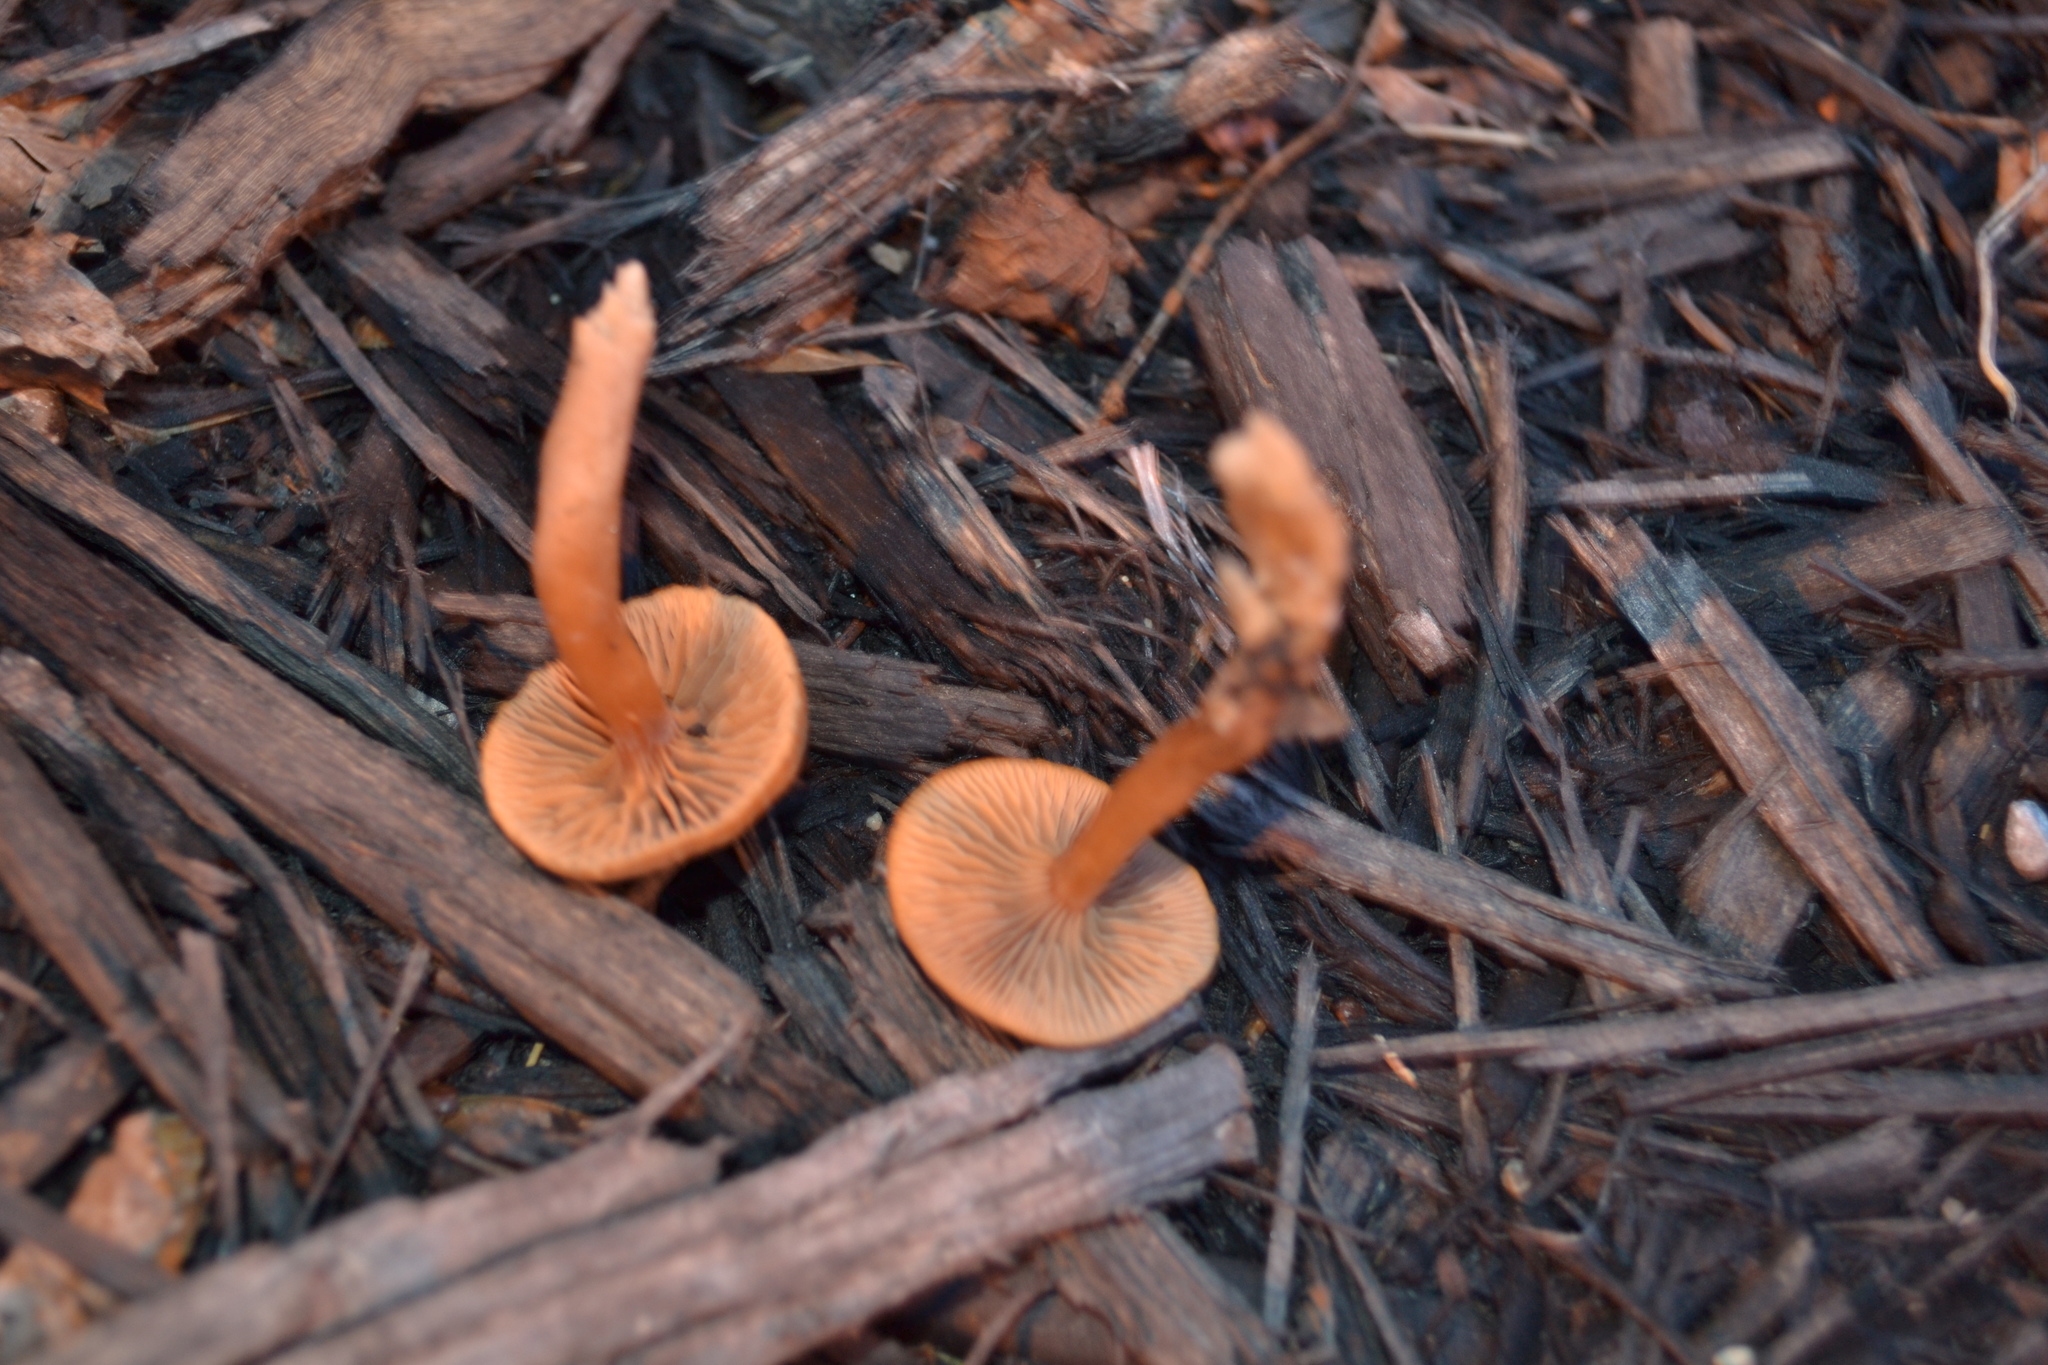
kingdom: Fungi
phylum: Basidiomycota
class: Agaricomycetes
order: Agaricales
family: Tubariaceae
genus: Tubaria
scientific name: Tubaria furfuracea
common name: Scurfy twiglet
